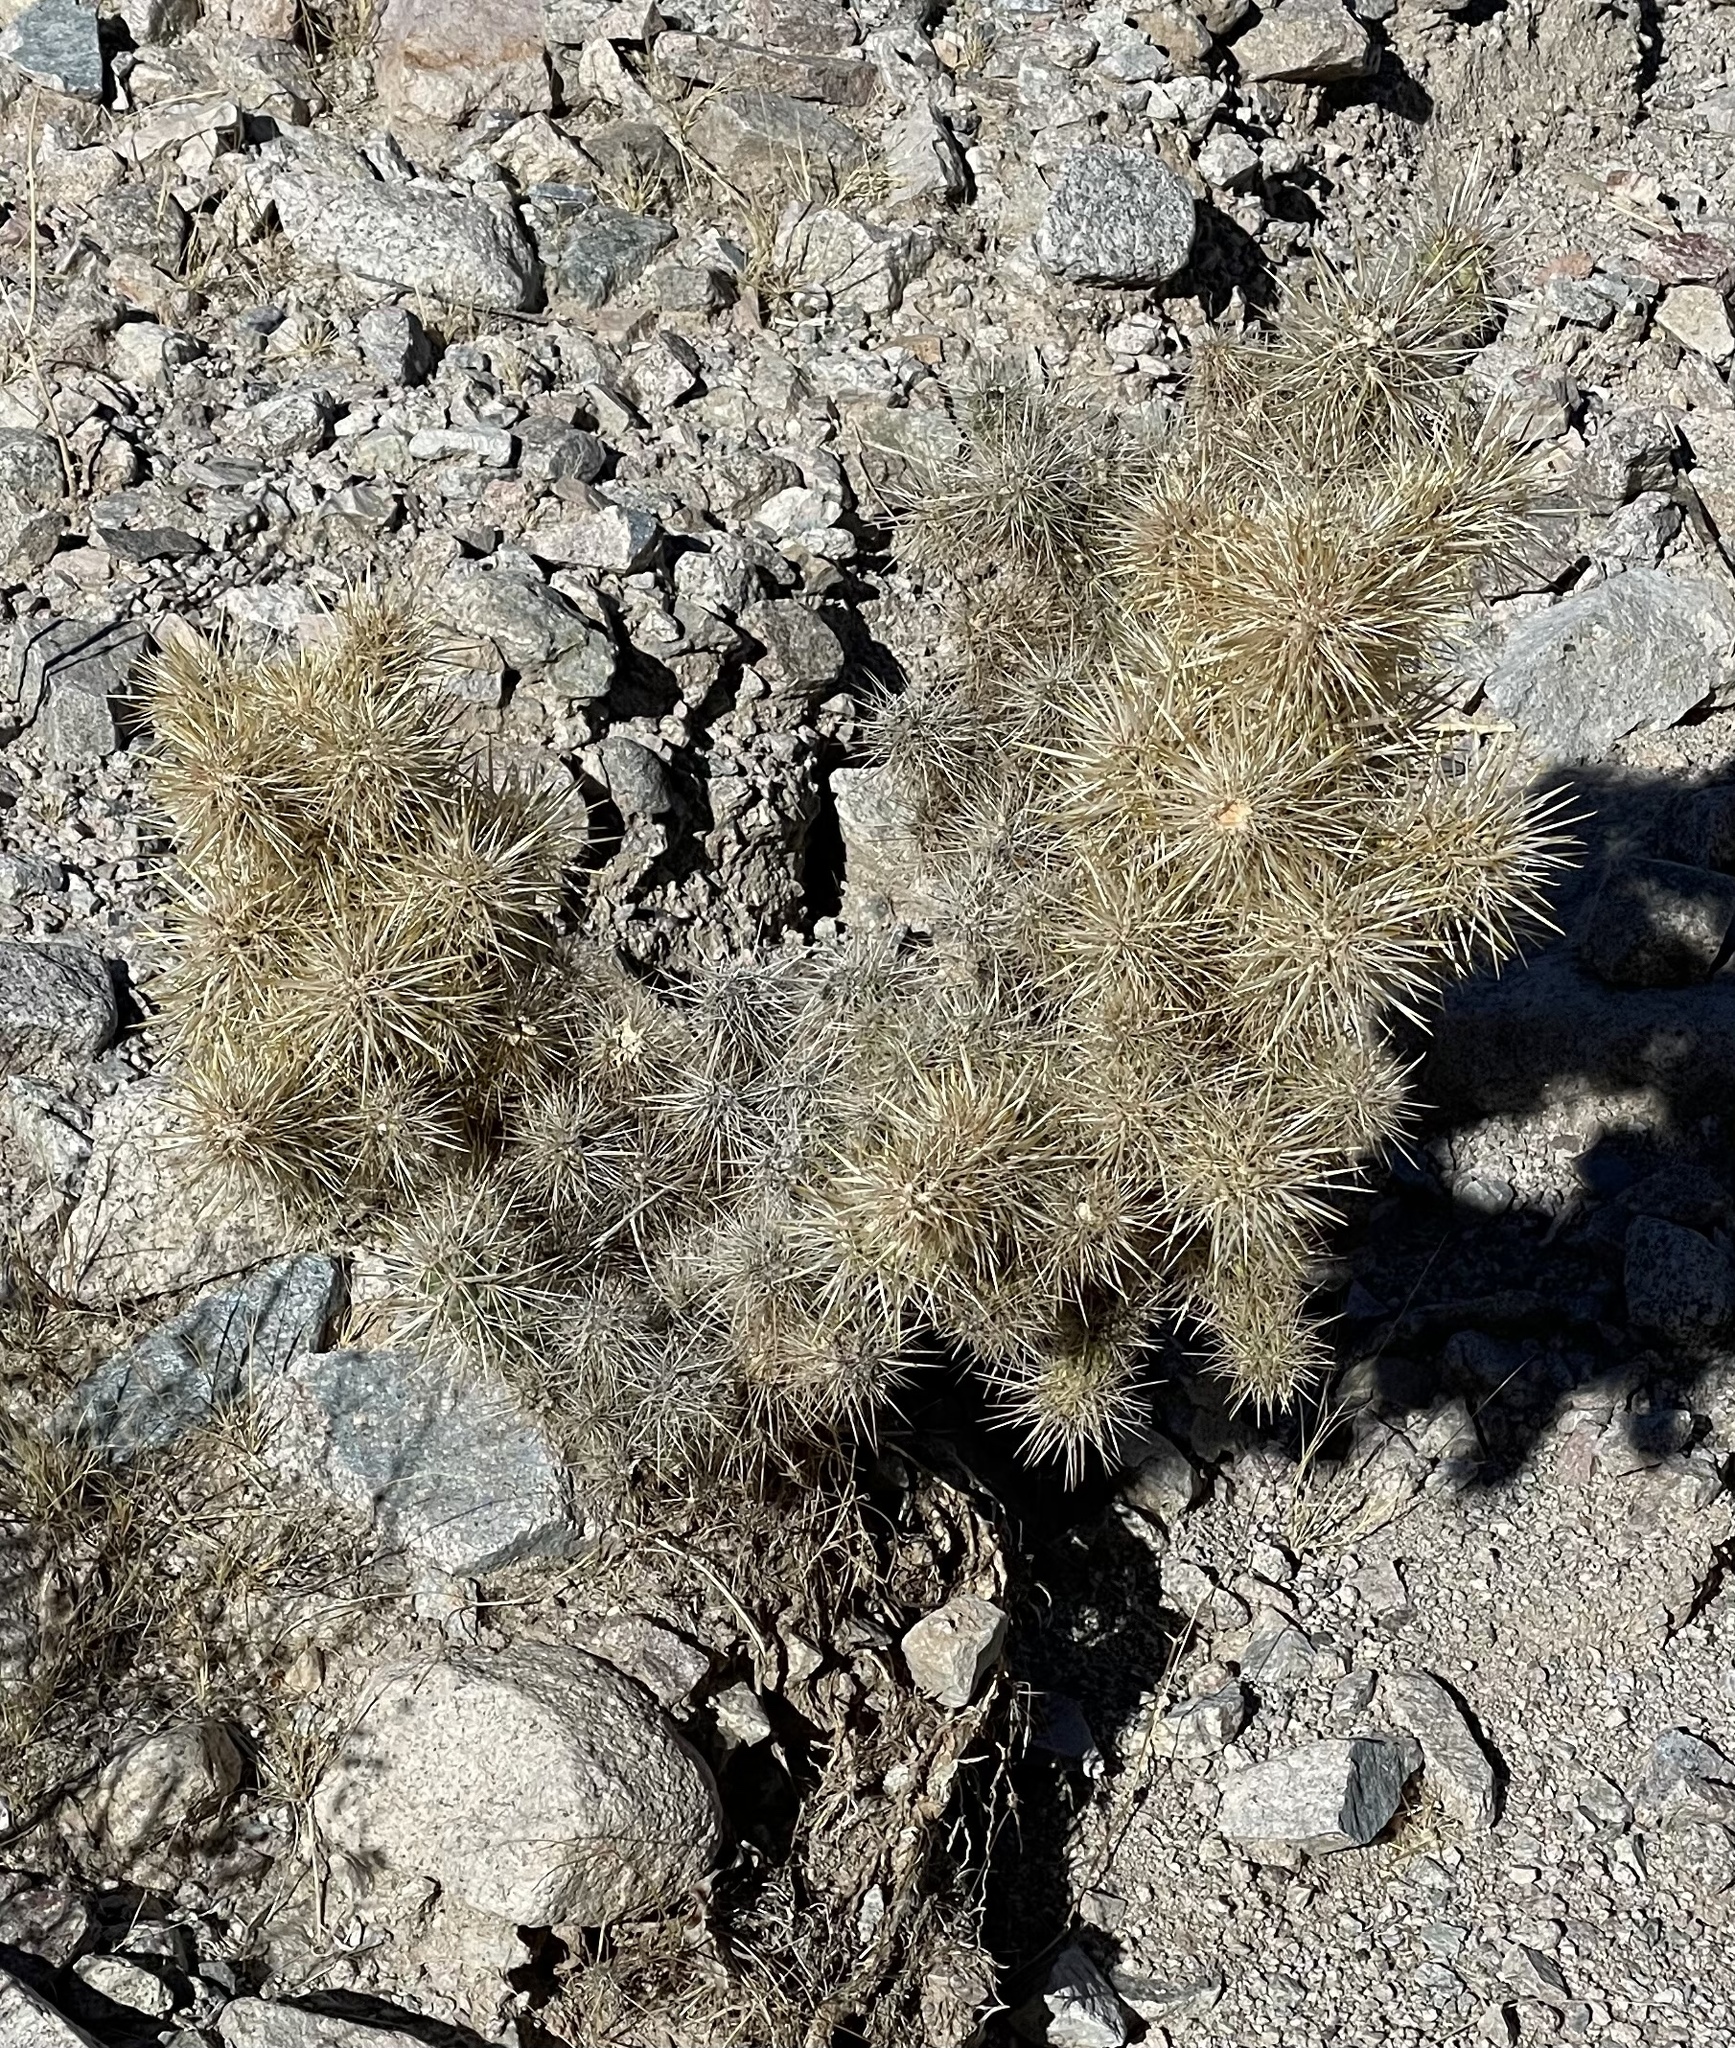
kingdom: Plantae
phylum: Tracheophyta
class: Magnoliopsida
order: Caryophyllales
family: Cactaceae
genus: Cylindropuntia
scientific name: Cylindropuntia echinocarpa
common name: Ground cholla
